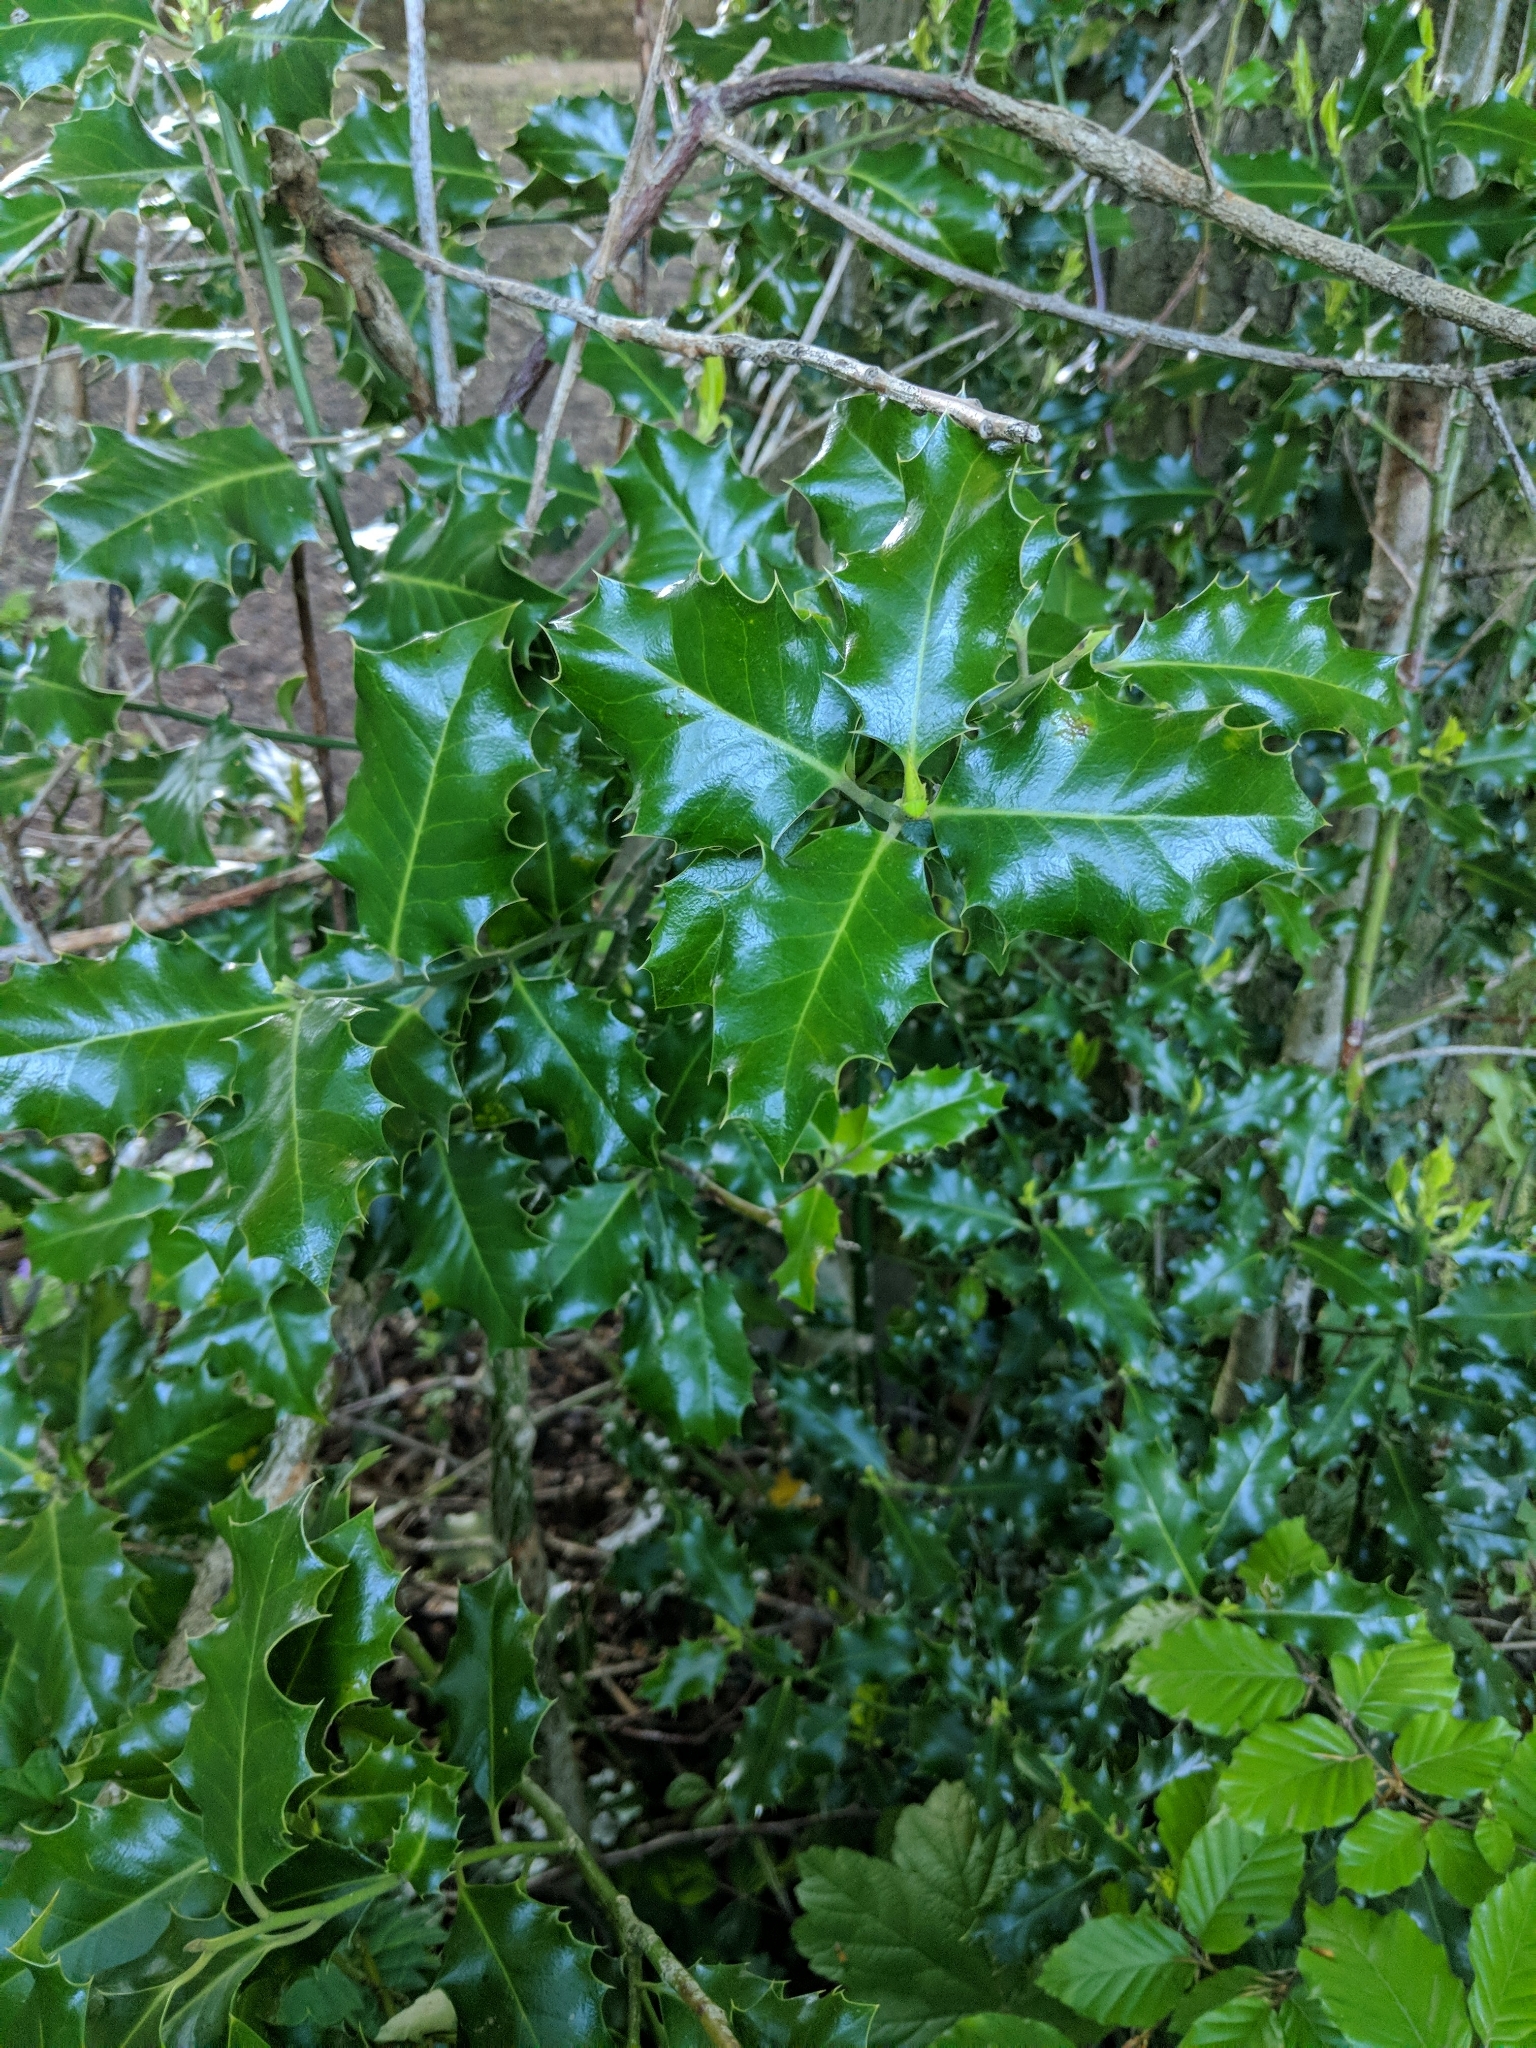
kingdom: Plantae
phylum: Tracheophyta
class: Magnoliopsida
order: Aquifoliales
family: Aquifoliaceae
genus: Ilex
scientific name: Ilex aquifolium
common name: English holly
